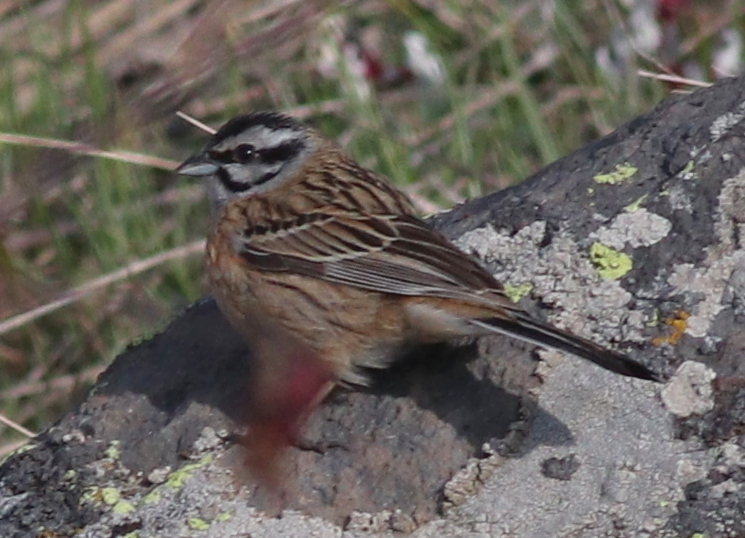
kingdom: Animalia
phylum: Chordata
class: Aves
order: Passeriformes
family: Emberizidae
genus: Emberiza
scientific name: Emberiza cia
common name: Rock bunting
